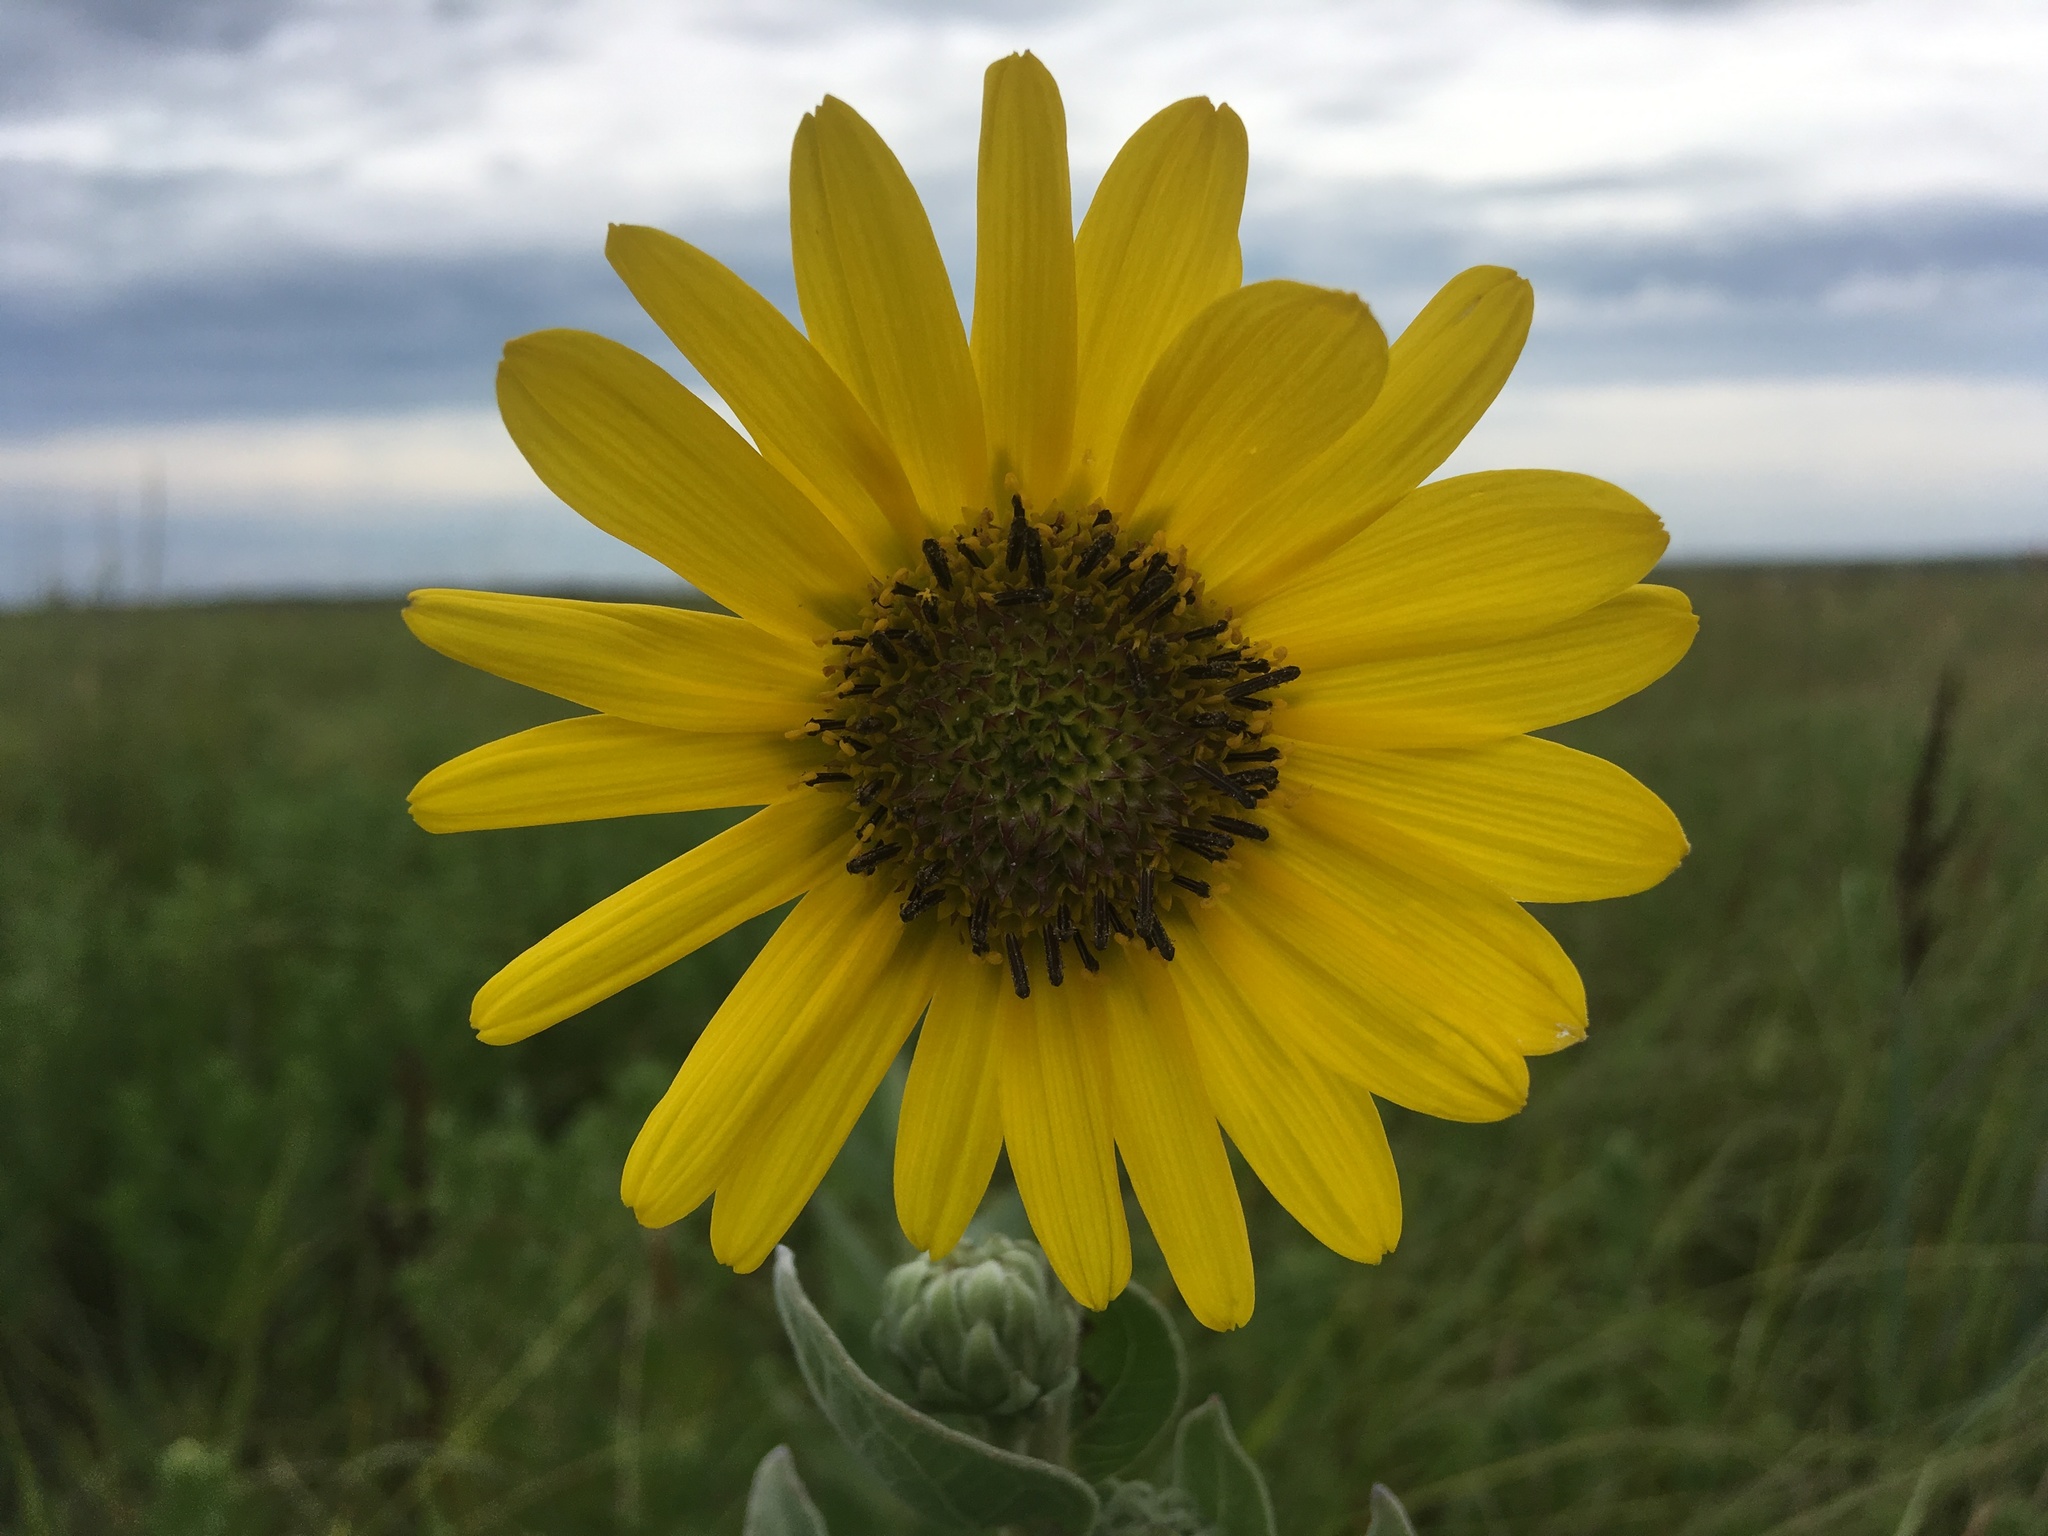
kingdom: Plantae
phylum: Tracheophyta
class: Magnoliopsida
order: Asterales
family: Asteraceae
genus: Helianthus
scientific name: Helianthus mollis
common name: Ashy sunflower
